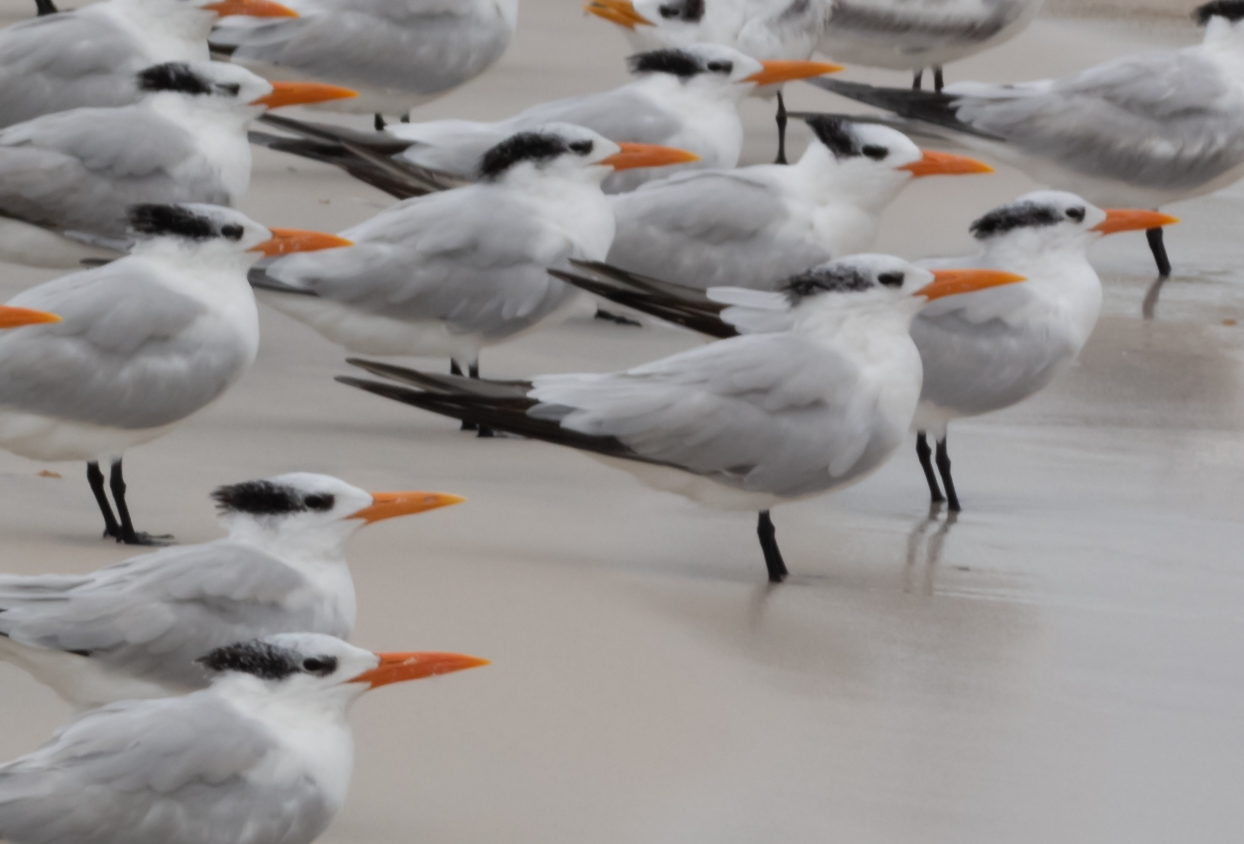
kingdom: Animalia
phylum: Chordata
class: Aves
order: Charadriiformes
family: Laridae
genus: Thalasseus
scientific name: Thalasseus maximus
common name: Royal tern
